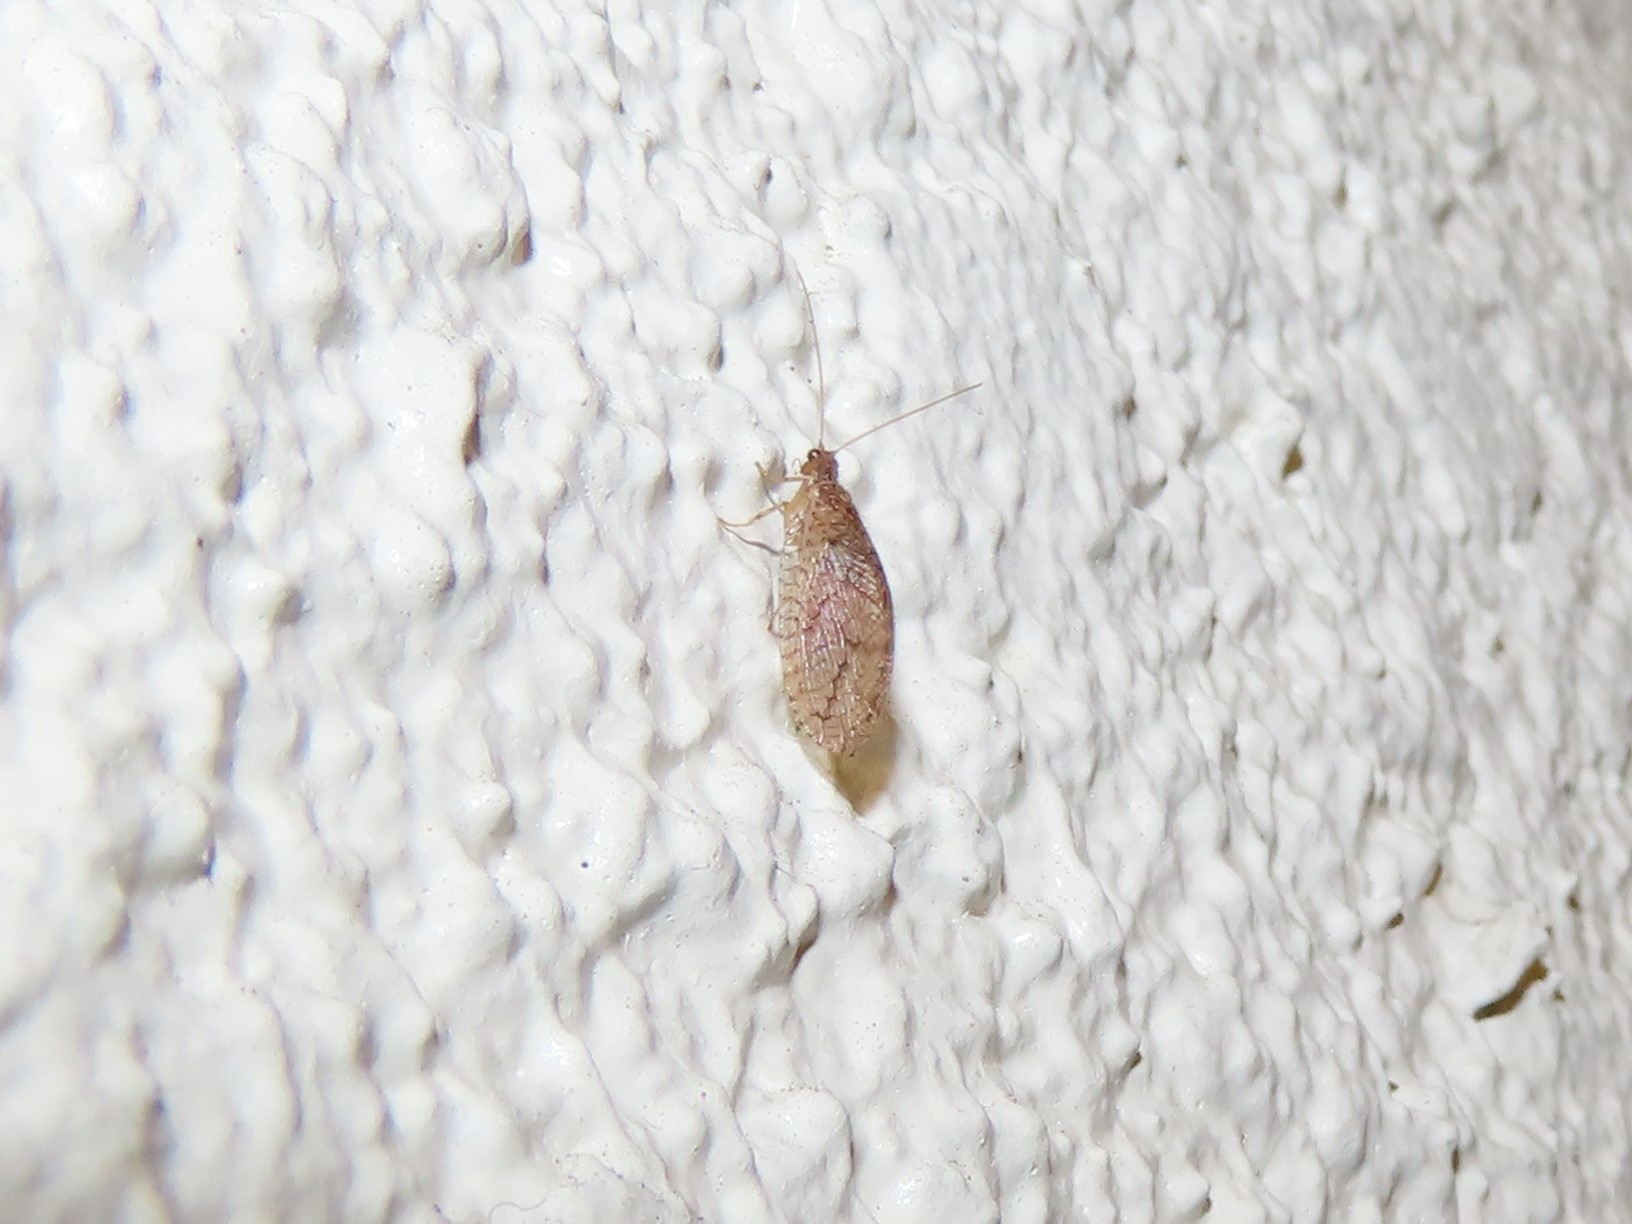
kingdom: Animalia
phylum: Arthropoda
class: Insecta
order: Neuroptera
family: Hemerobiidae
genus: Micromus
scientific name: Micromus posticus
